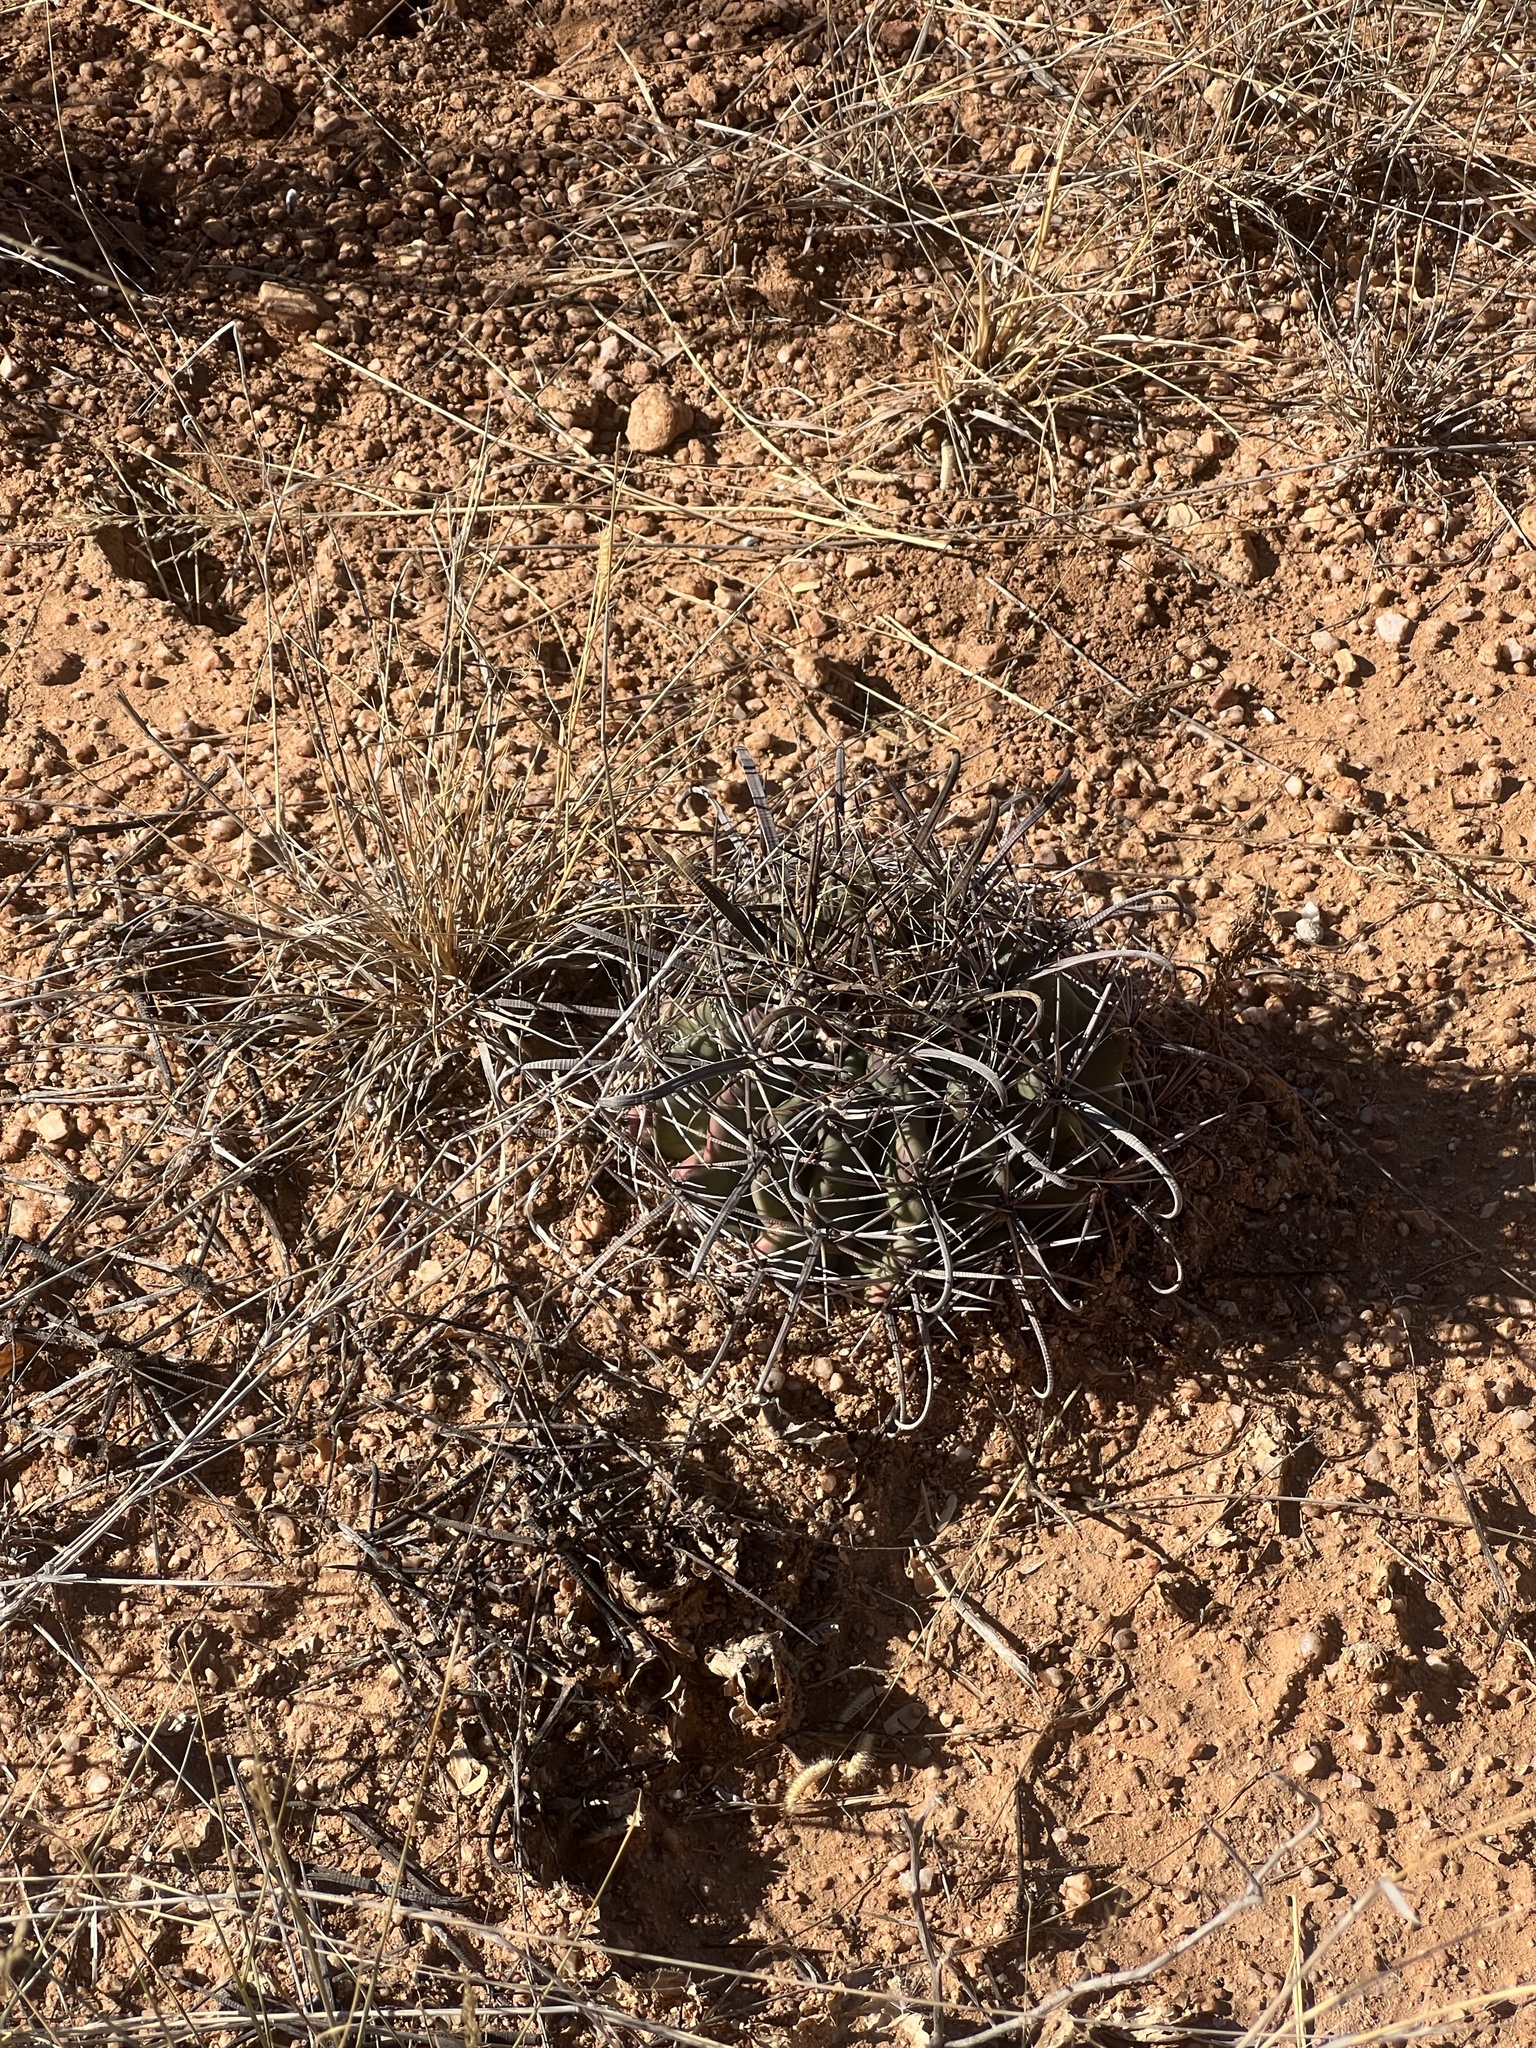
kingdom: Plantae
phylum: Tracheophyta
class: Magnoliopsida
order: Caryophyllales
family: Cactaceae
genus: Ferocactus
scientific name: Ferocactus wislizeni
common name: Candy barrel cactus
